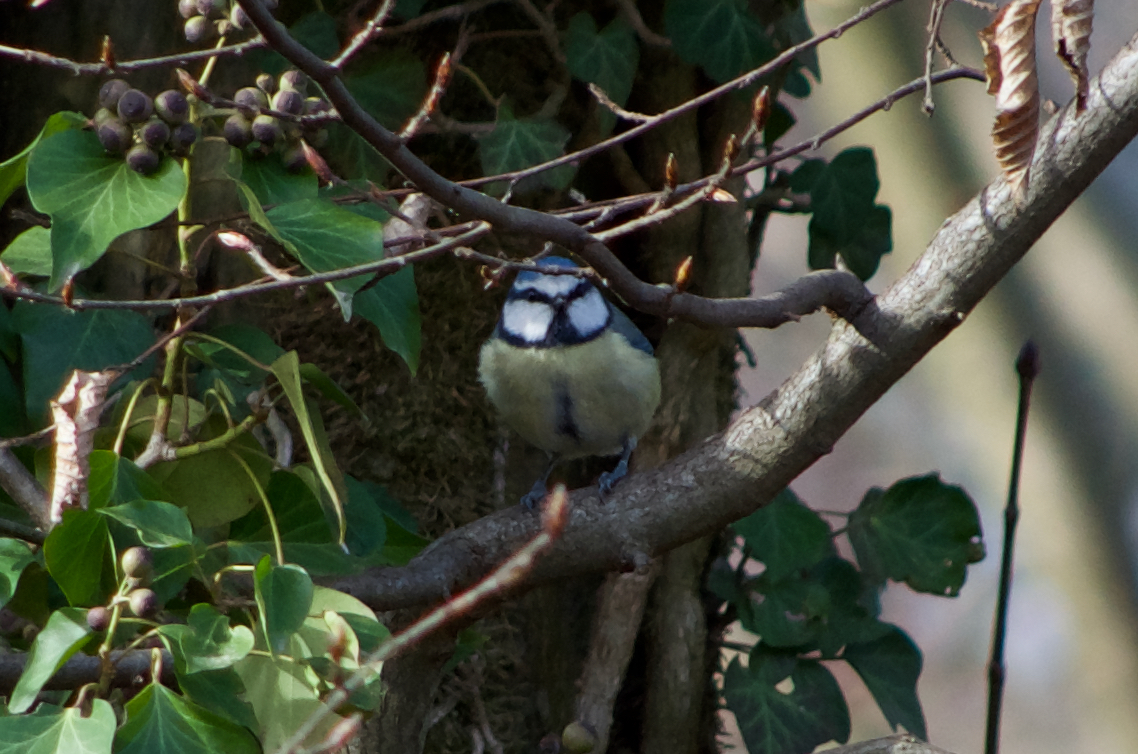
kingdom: Animalia
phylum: Chordata
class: Aves
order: Passeriformes
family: Paridae
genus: Cyanistes
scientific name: Cyanistes caeruleus
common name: Eurasian blue tit
